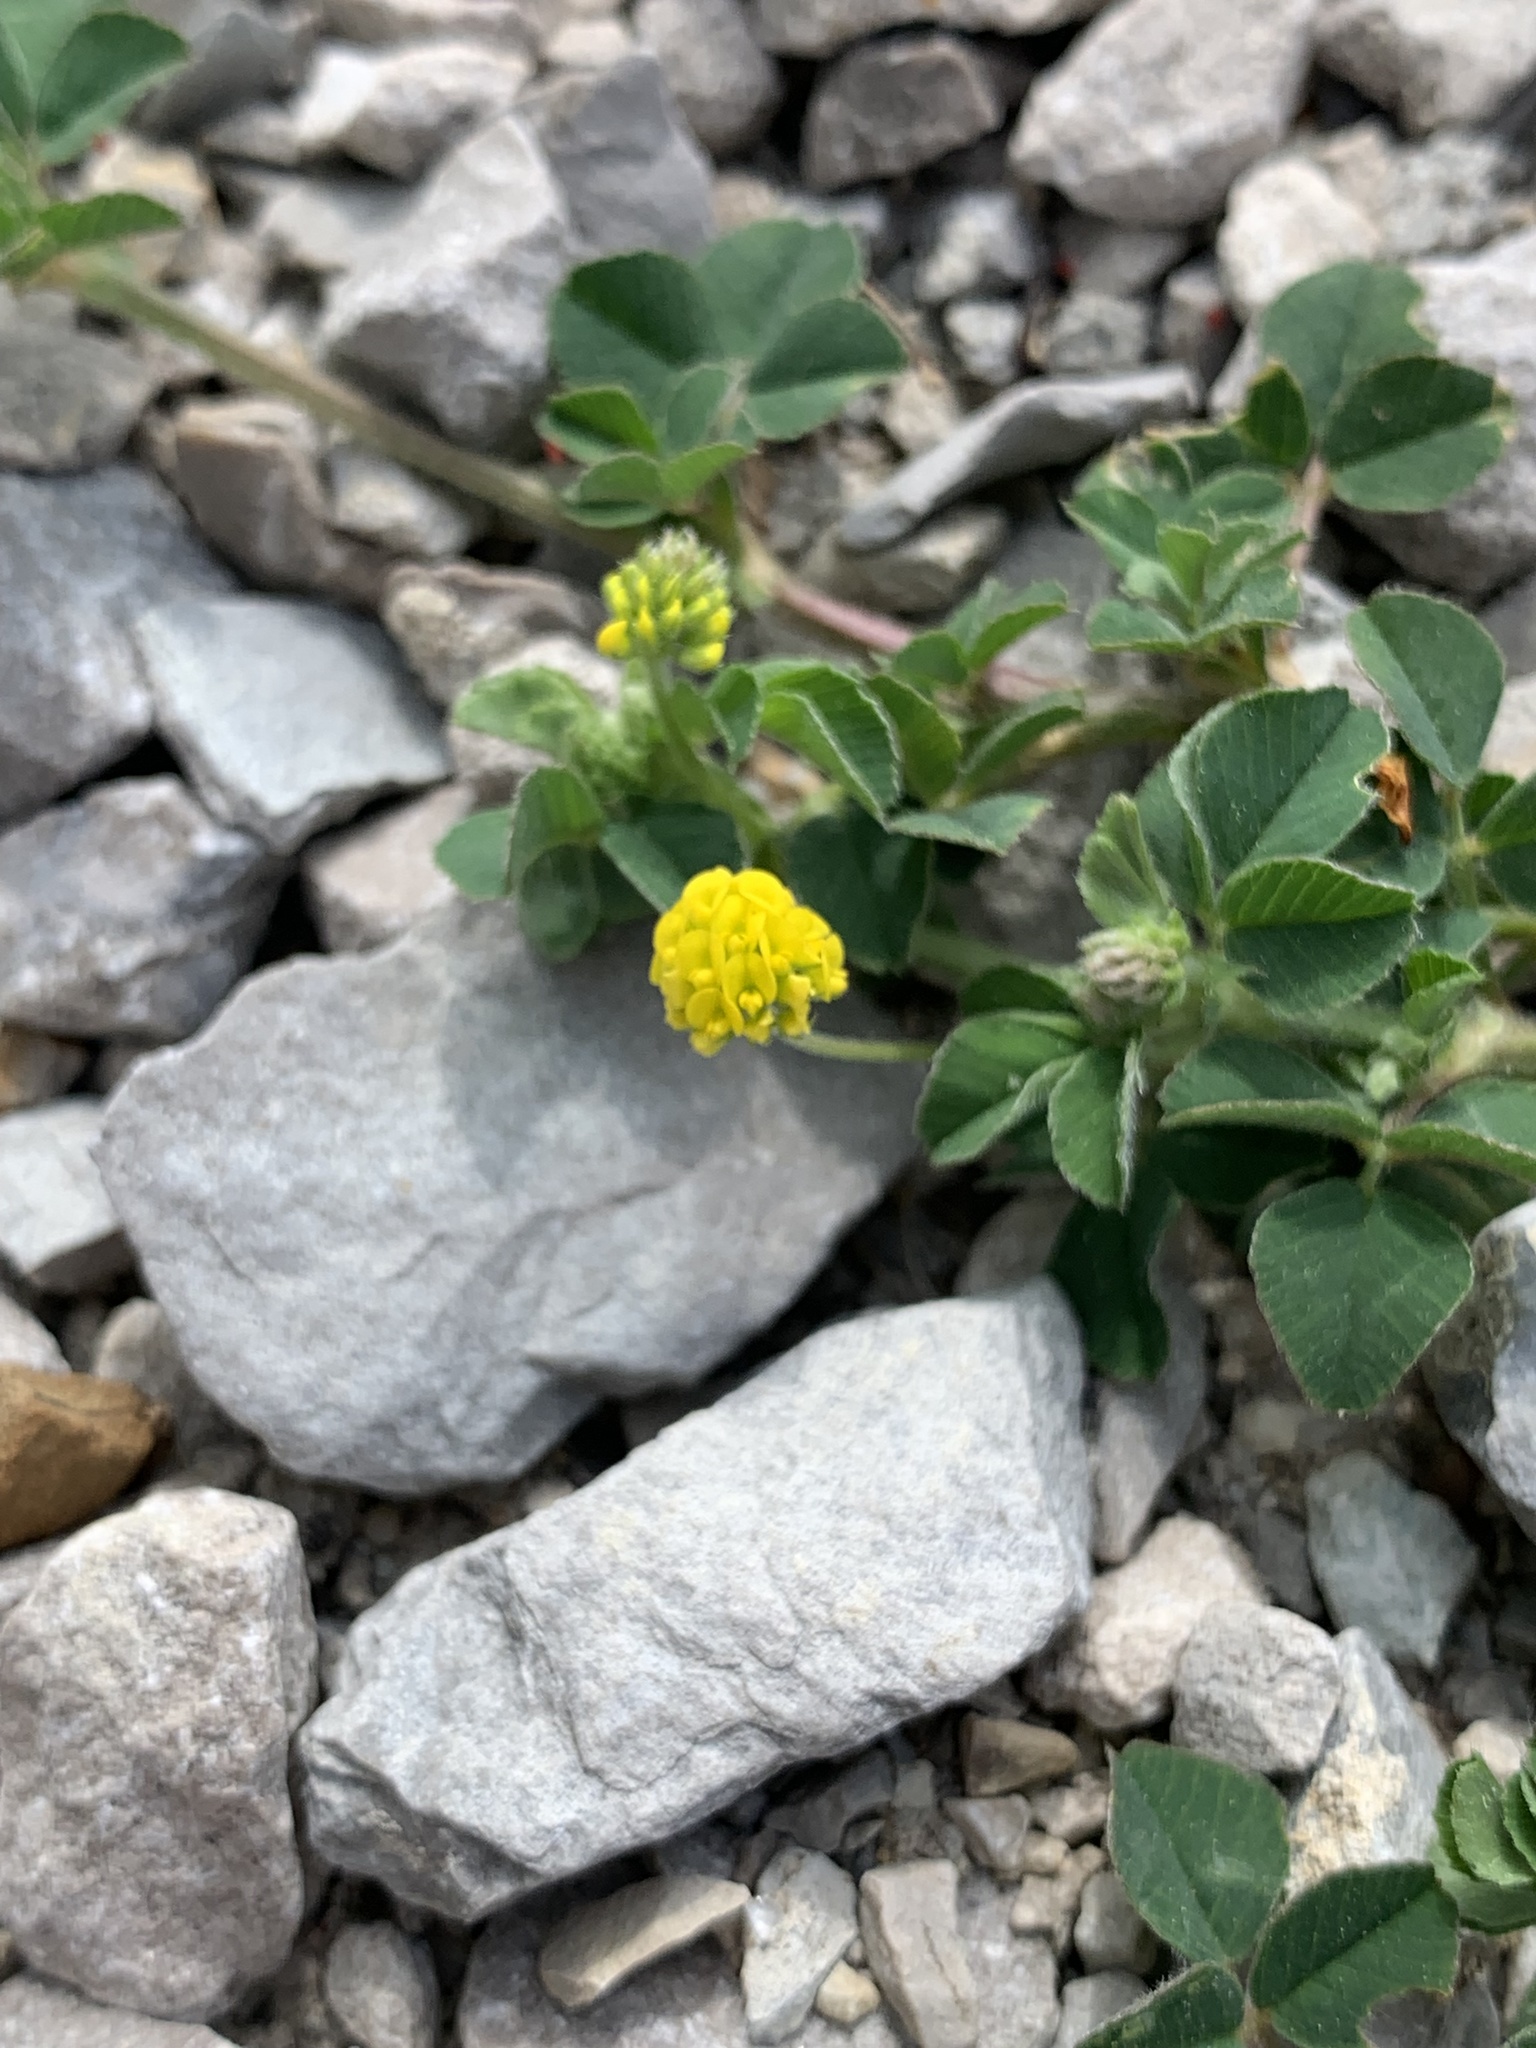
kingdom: Plantae
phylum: Tracheophyta
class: Magnoliopsida
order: Fabales
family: Fabaceae
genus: Medicago
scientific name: Medicago lupulina
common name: Black medick
